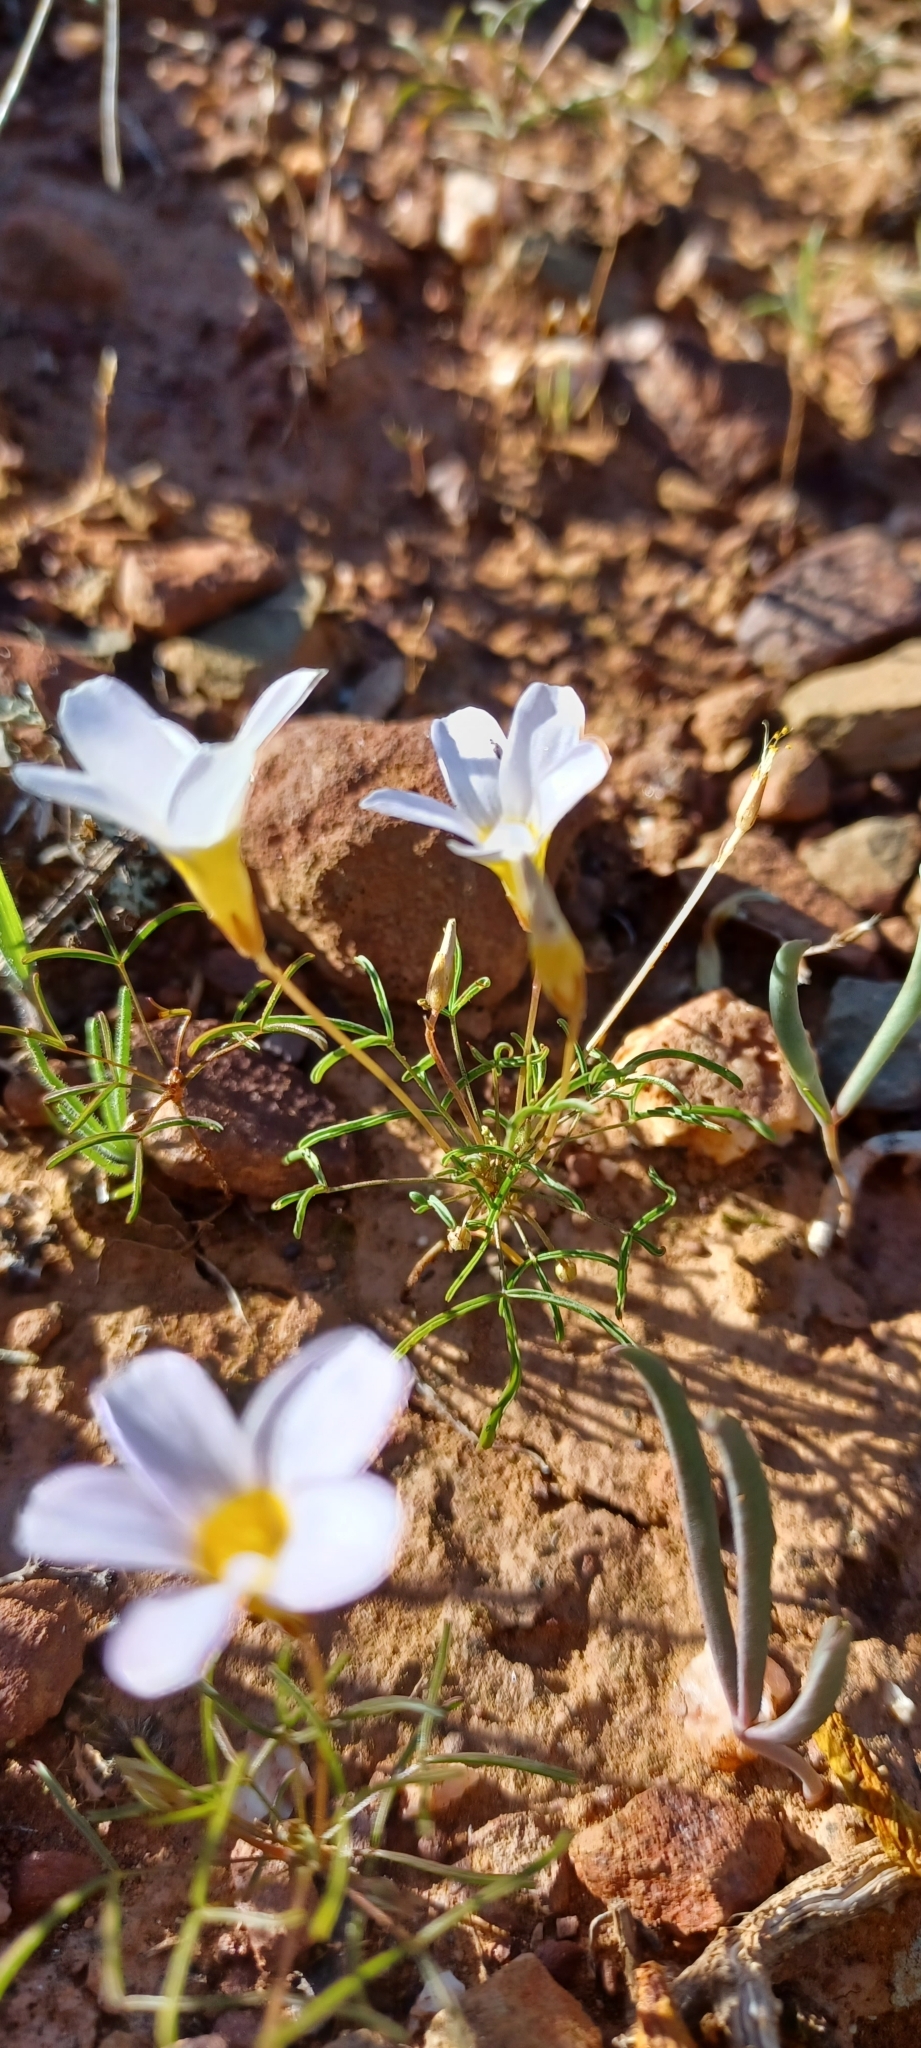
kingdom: Plantae
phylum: Tracheophyta
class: Magnoliopsida
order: Oxalidales
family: Oxalidaceae
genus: Oxalis
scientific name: Oxalis burkei
